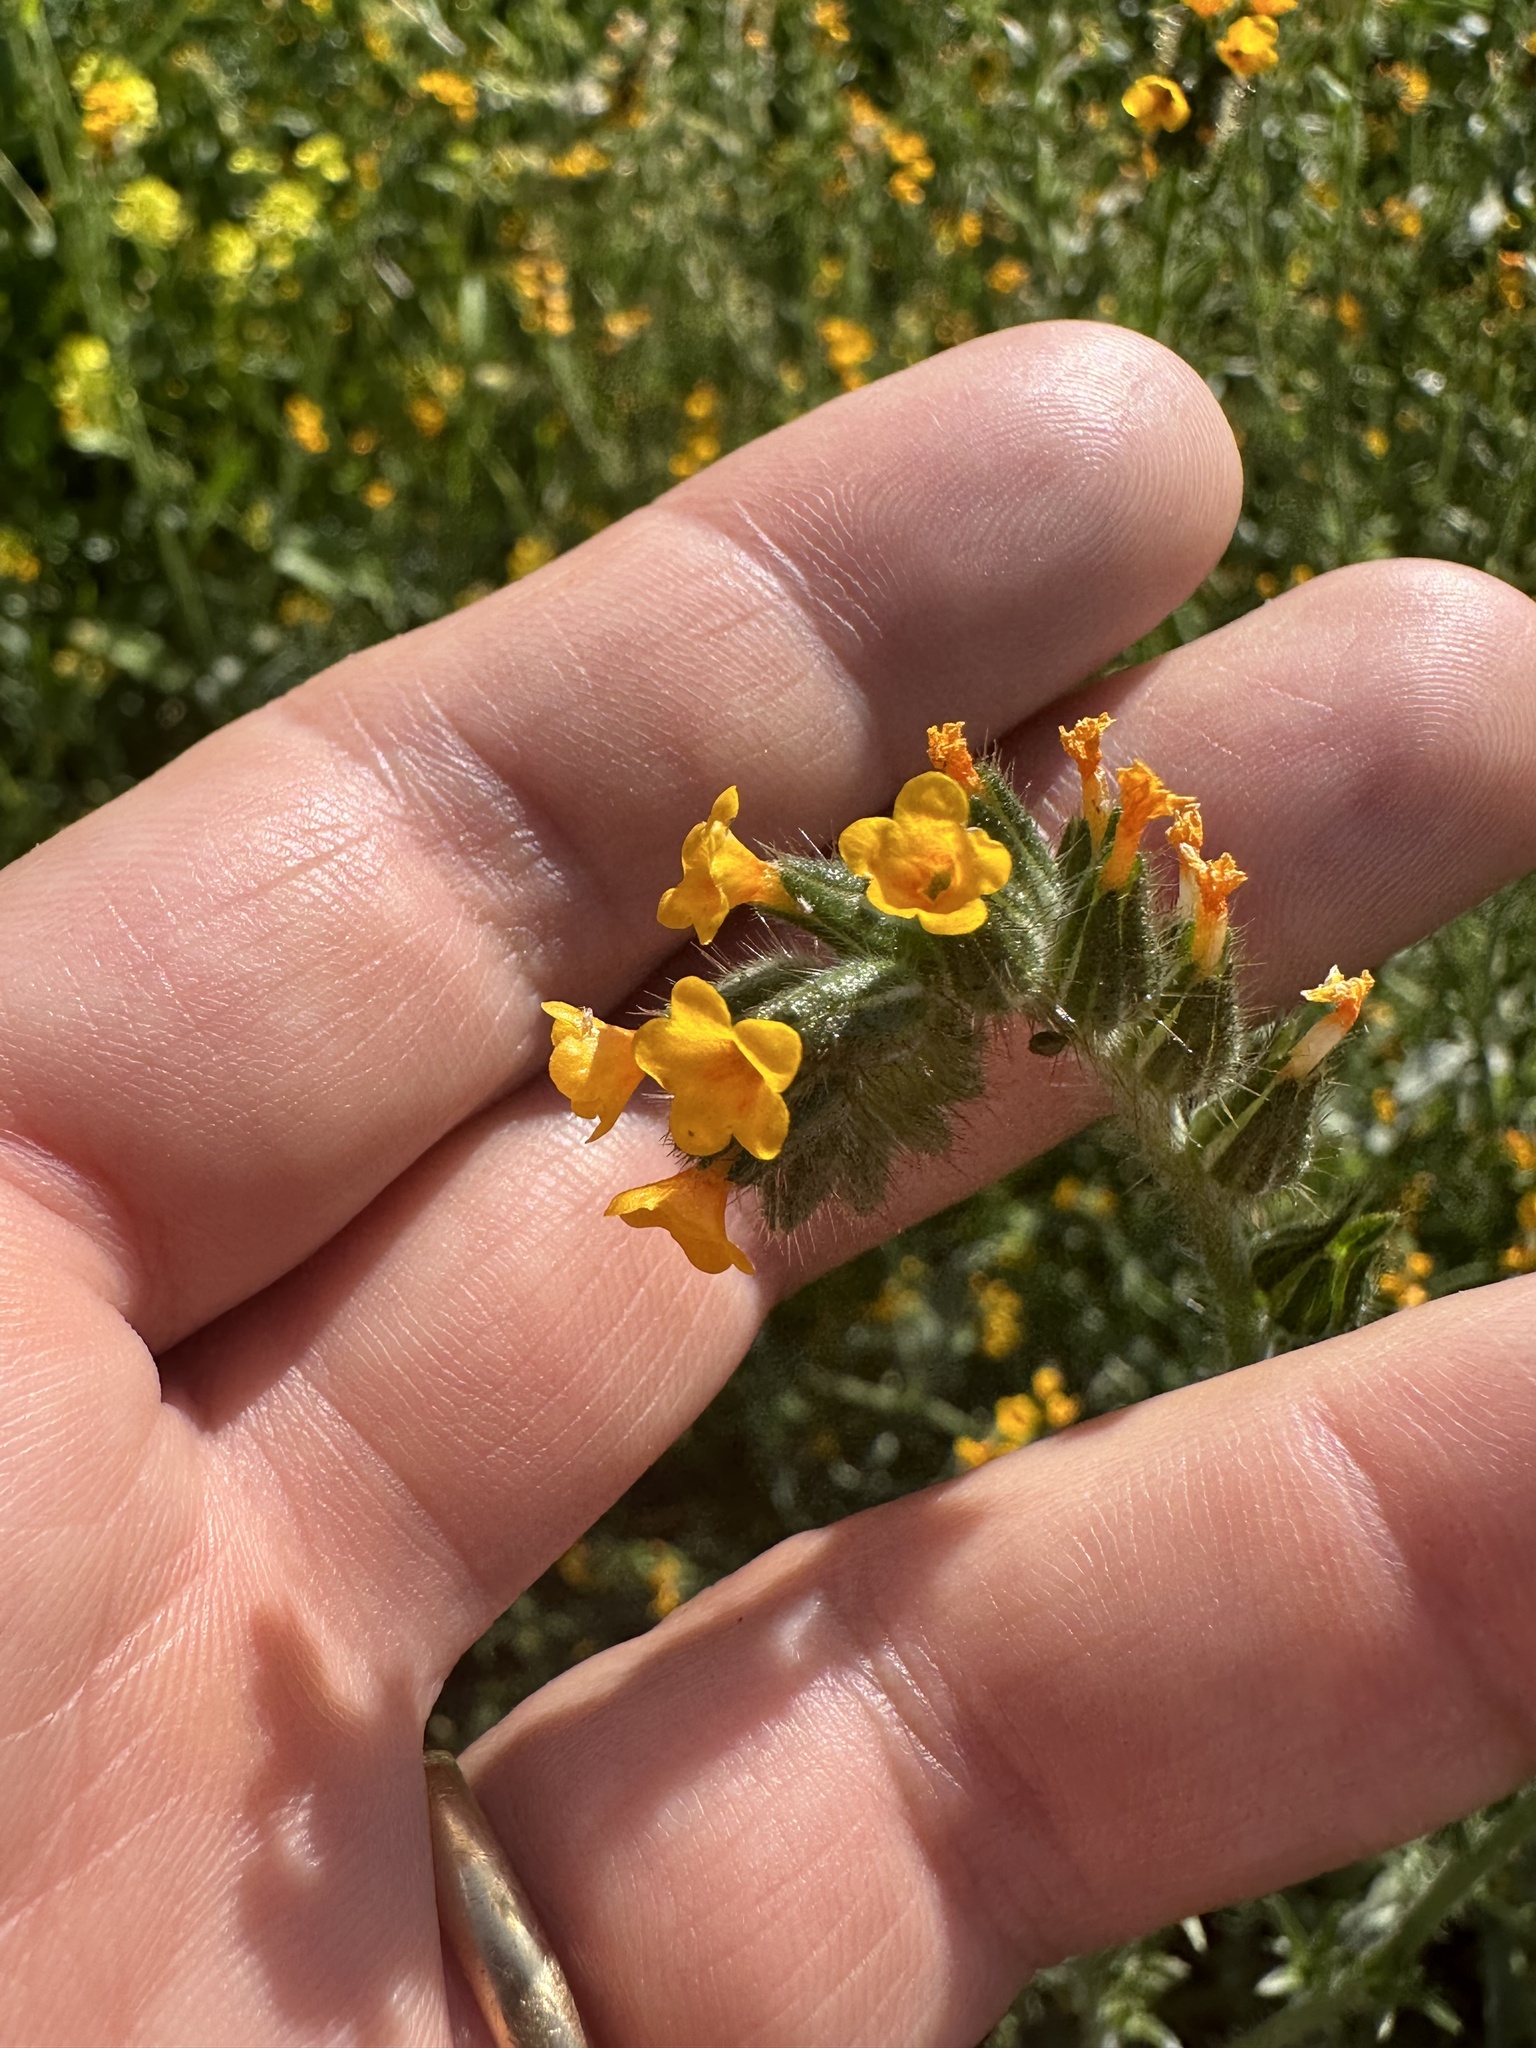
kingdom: Plantae
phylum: Tracheophyta
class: Magnoliopsida
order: Boraginales
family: Boraginaceae
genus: Amsinckia
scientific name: Amsinckia calycina
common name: Hairy fiddleneck
